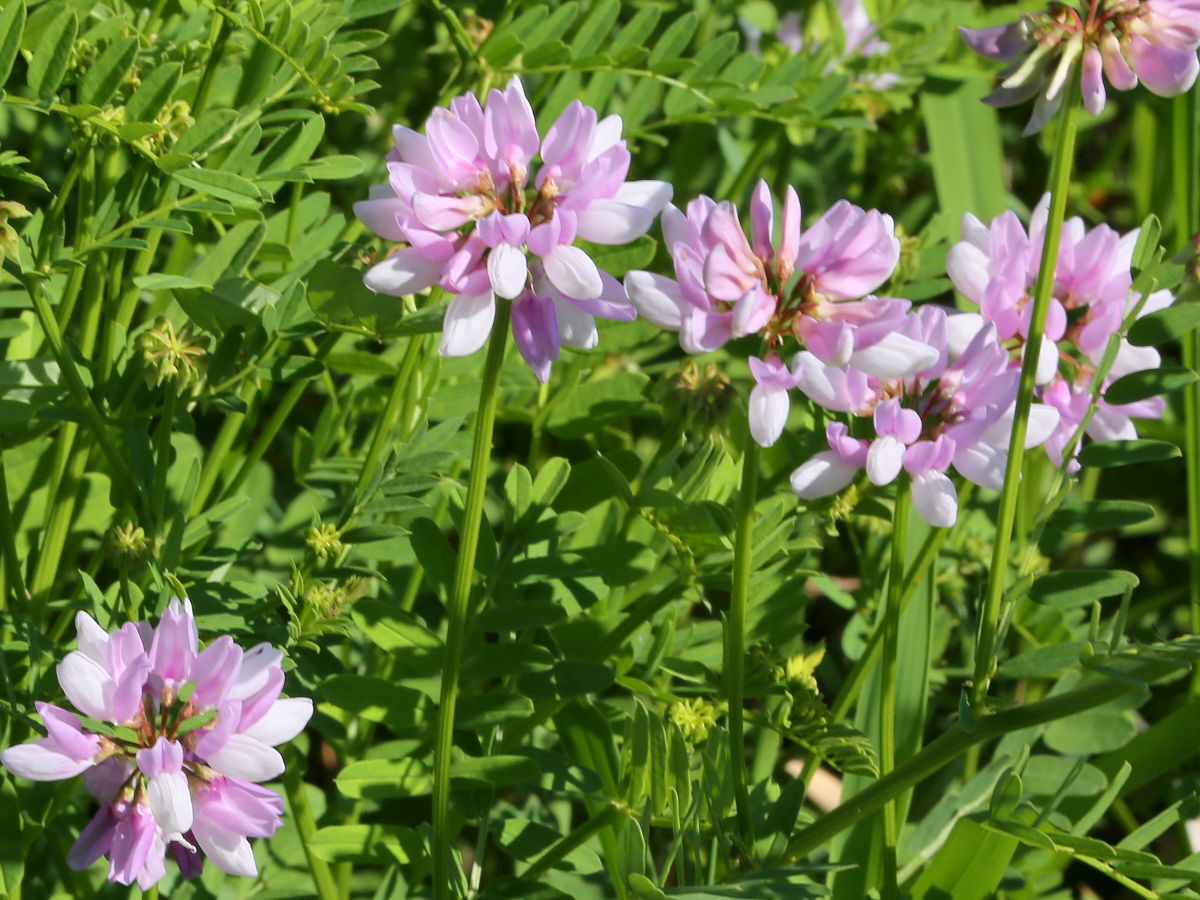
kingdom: Plantae
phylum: Tracheophyta
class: Magnoliopsida
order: Fabales
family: Fabaceae
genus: Coronilla
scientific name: Coronilla varia
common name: Crownvetch
